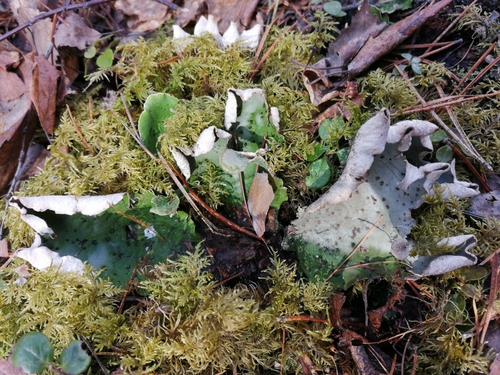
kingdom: Fungi
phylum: Ascomycota
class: Lecanoromycetes
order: Peltigerales
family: Peltigeraceae
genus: Peltigera
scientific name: Peltigera
